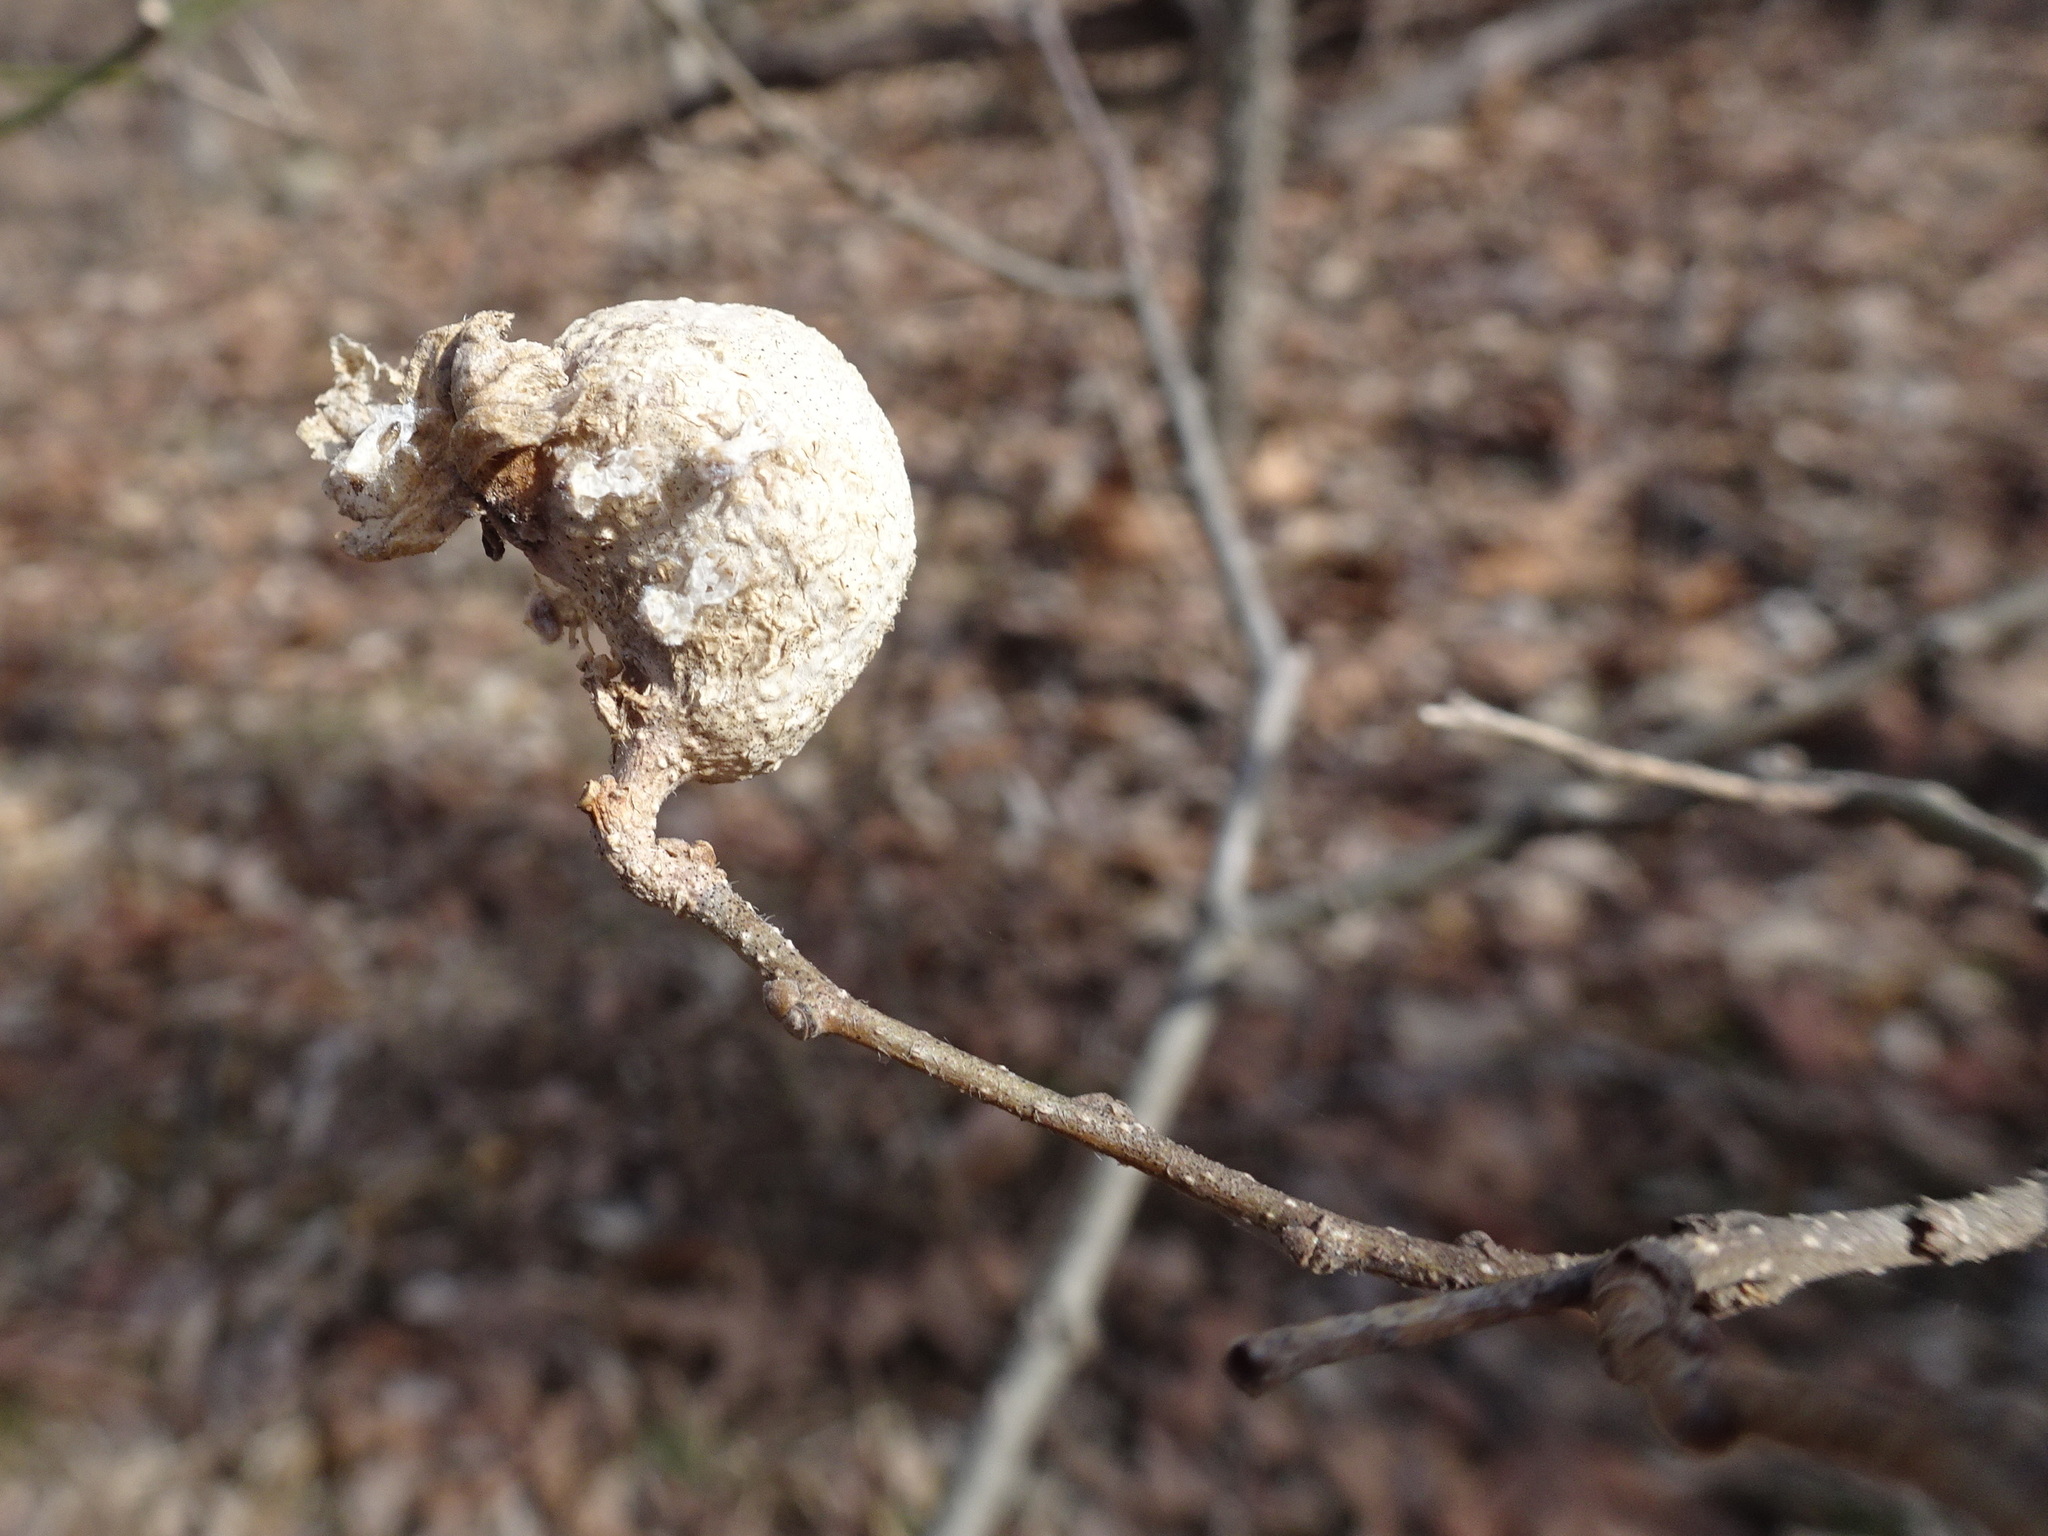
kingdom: Animalia
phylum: Arthropoda
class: Insecta
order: Hemiptera
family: Aphalaridae
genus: Pachypsylla
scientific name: Pachypsylla venusta
